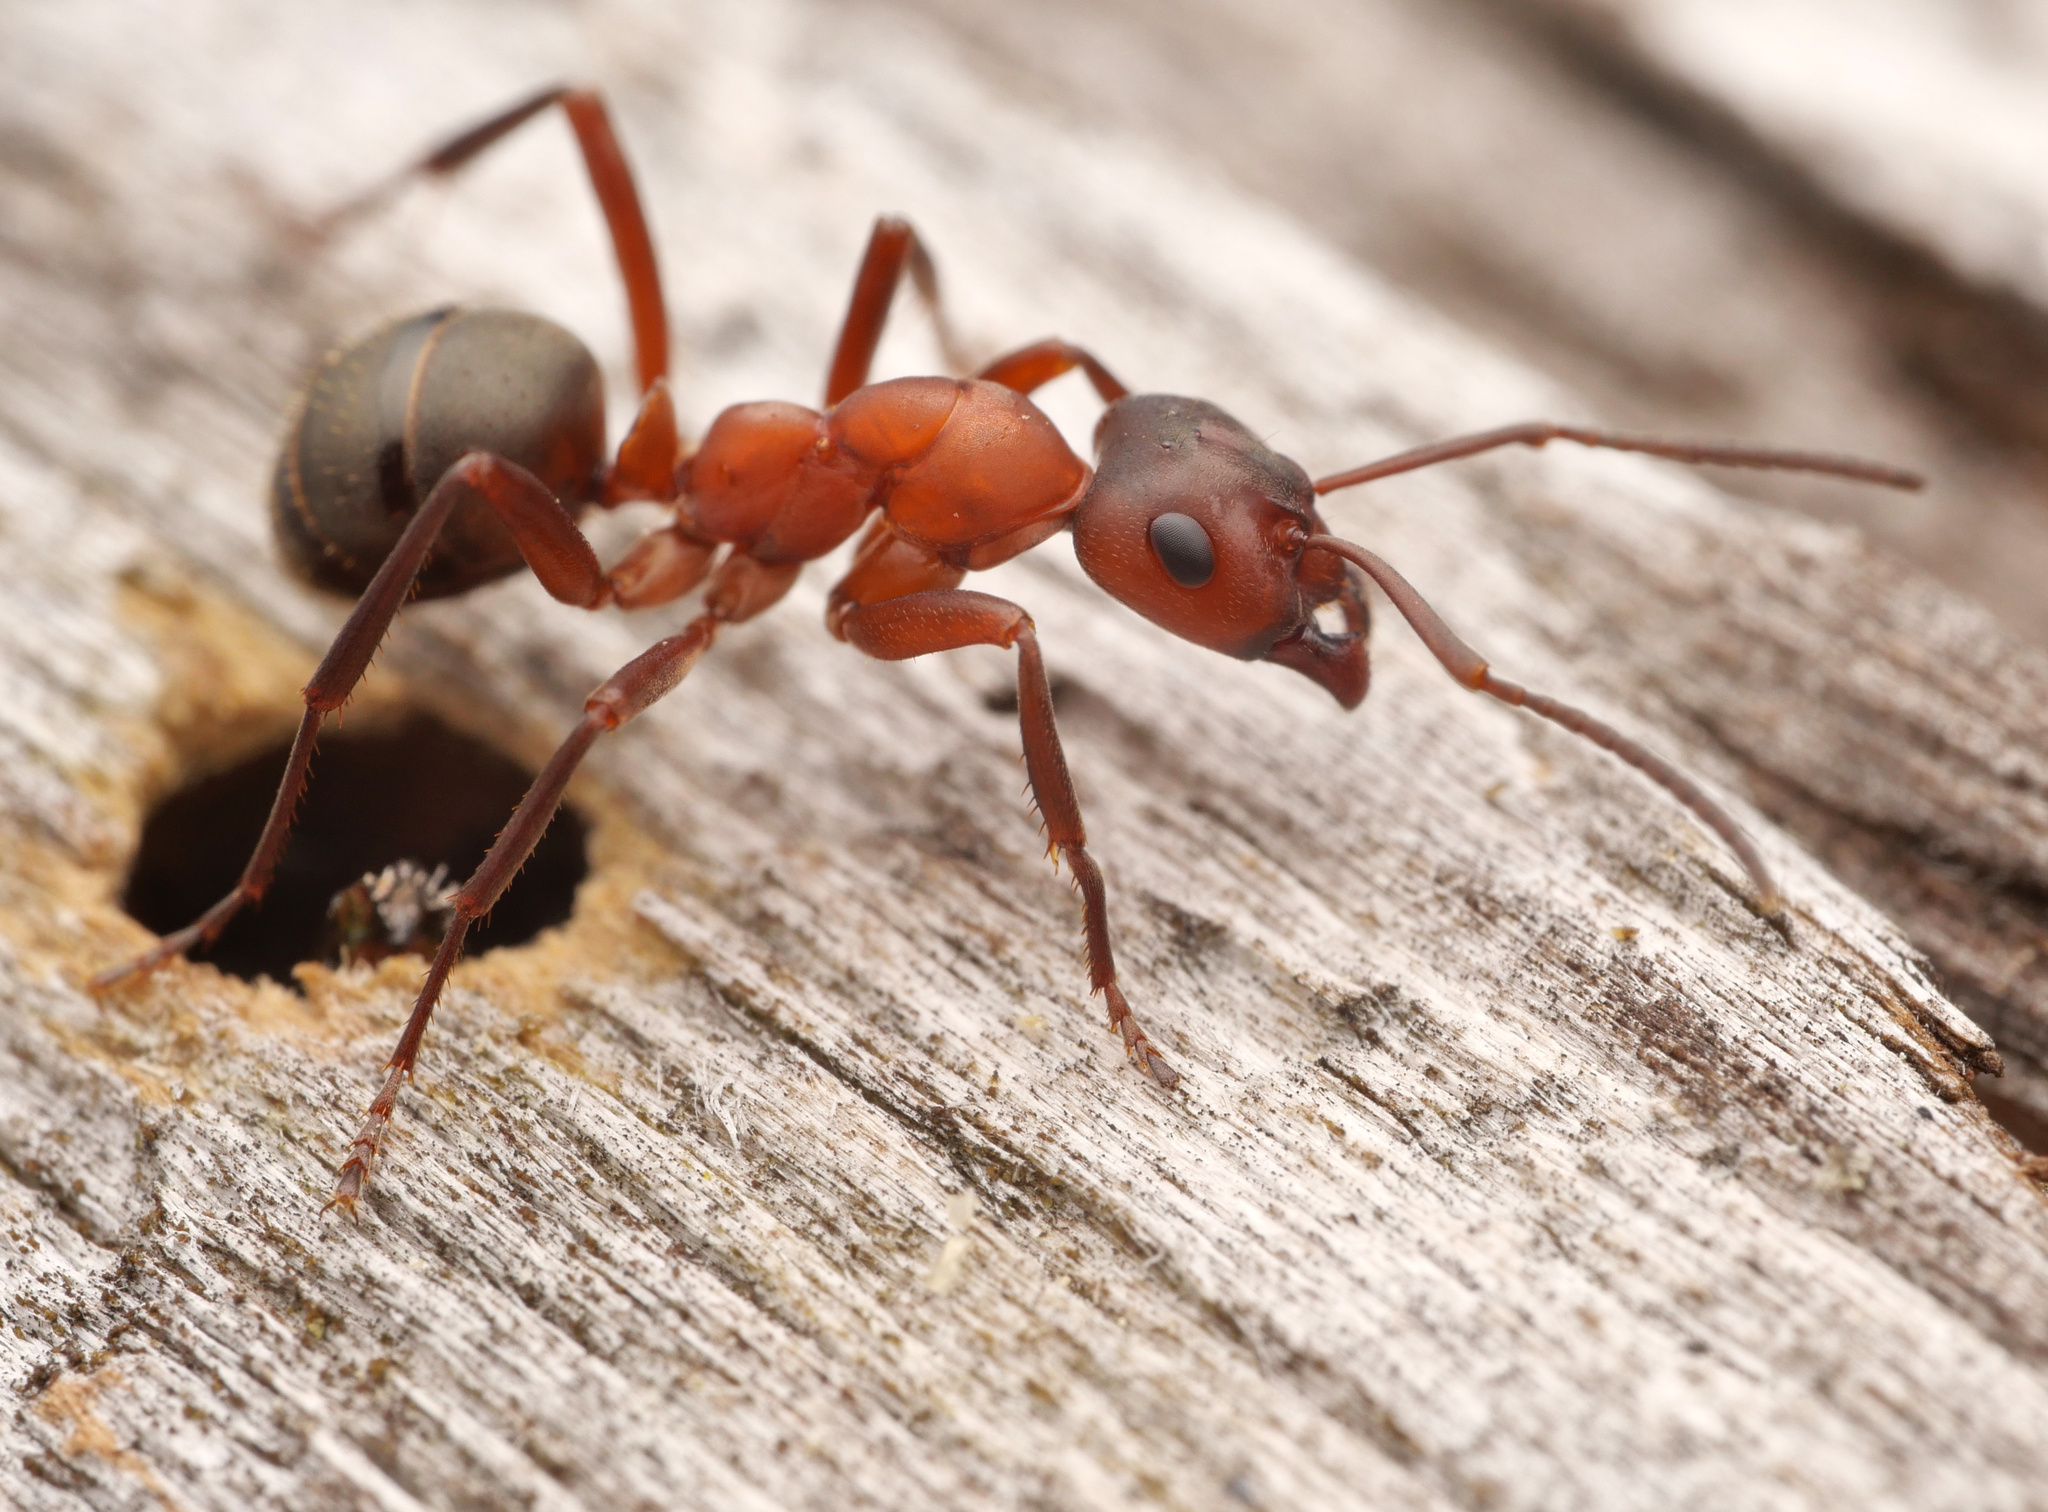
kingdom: Animalia
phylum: Arthropoda
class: Insecta
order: Hymenoptera
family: Formicidae
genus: Formica
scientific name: Formica sanguinea
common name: Blood-red ant
